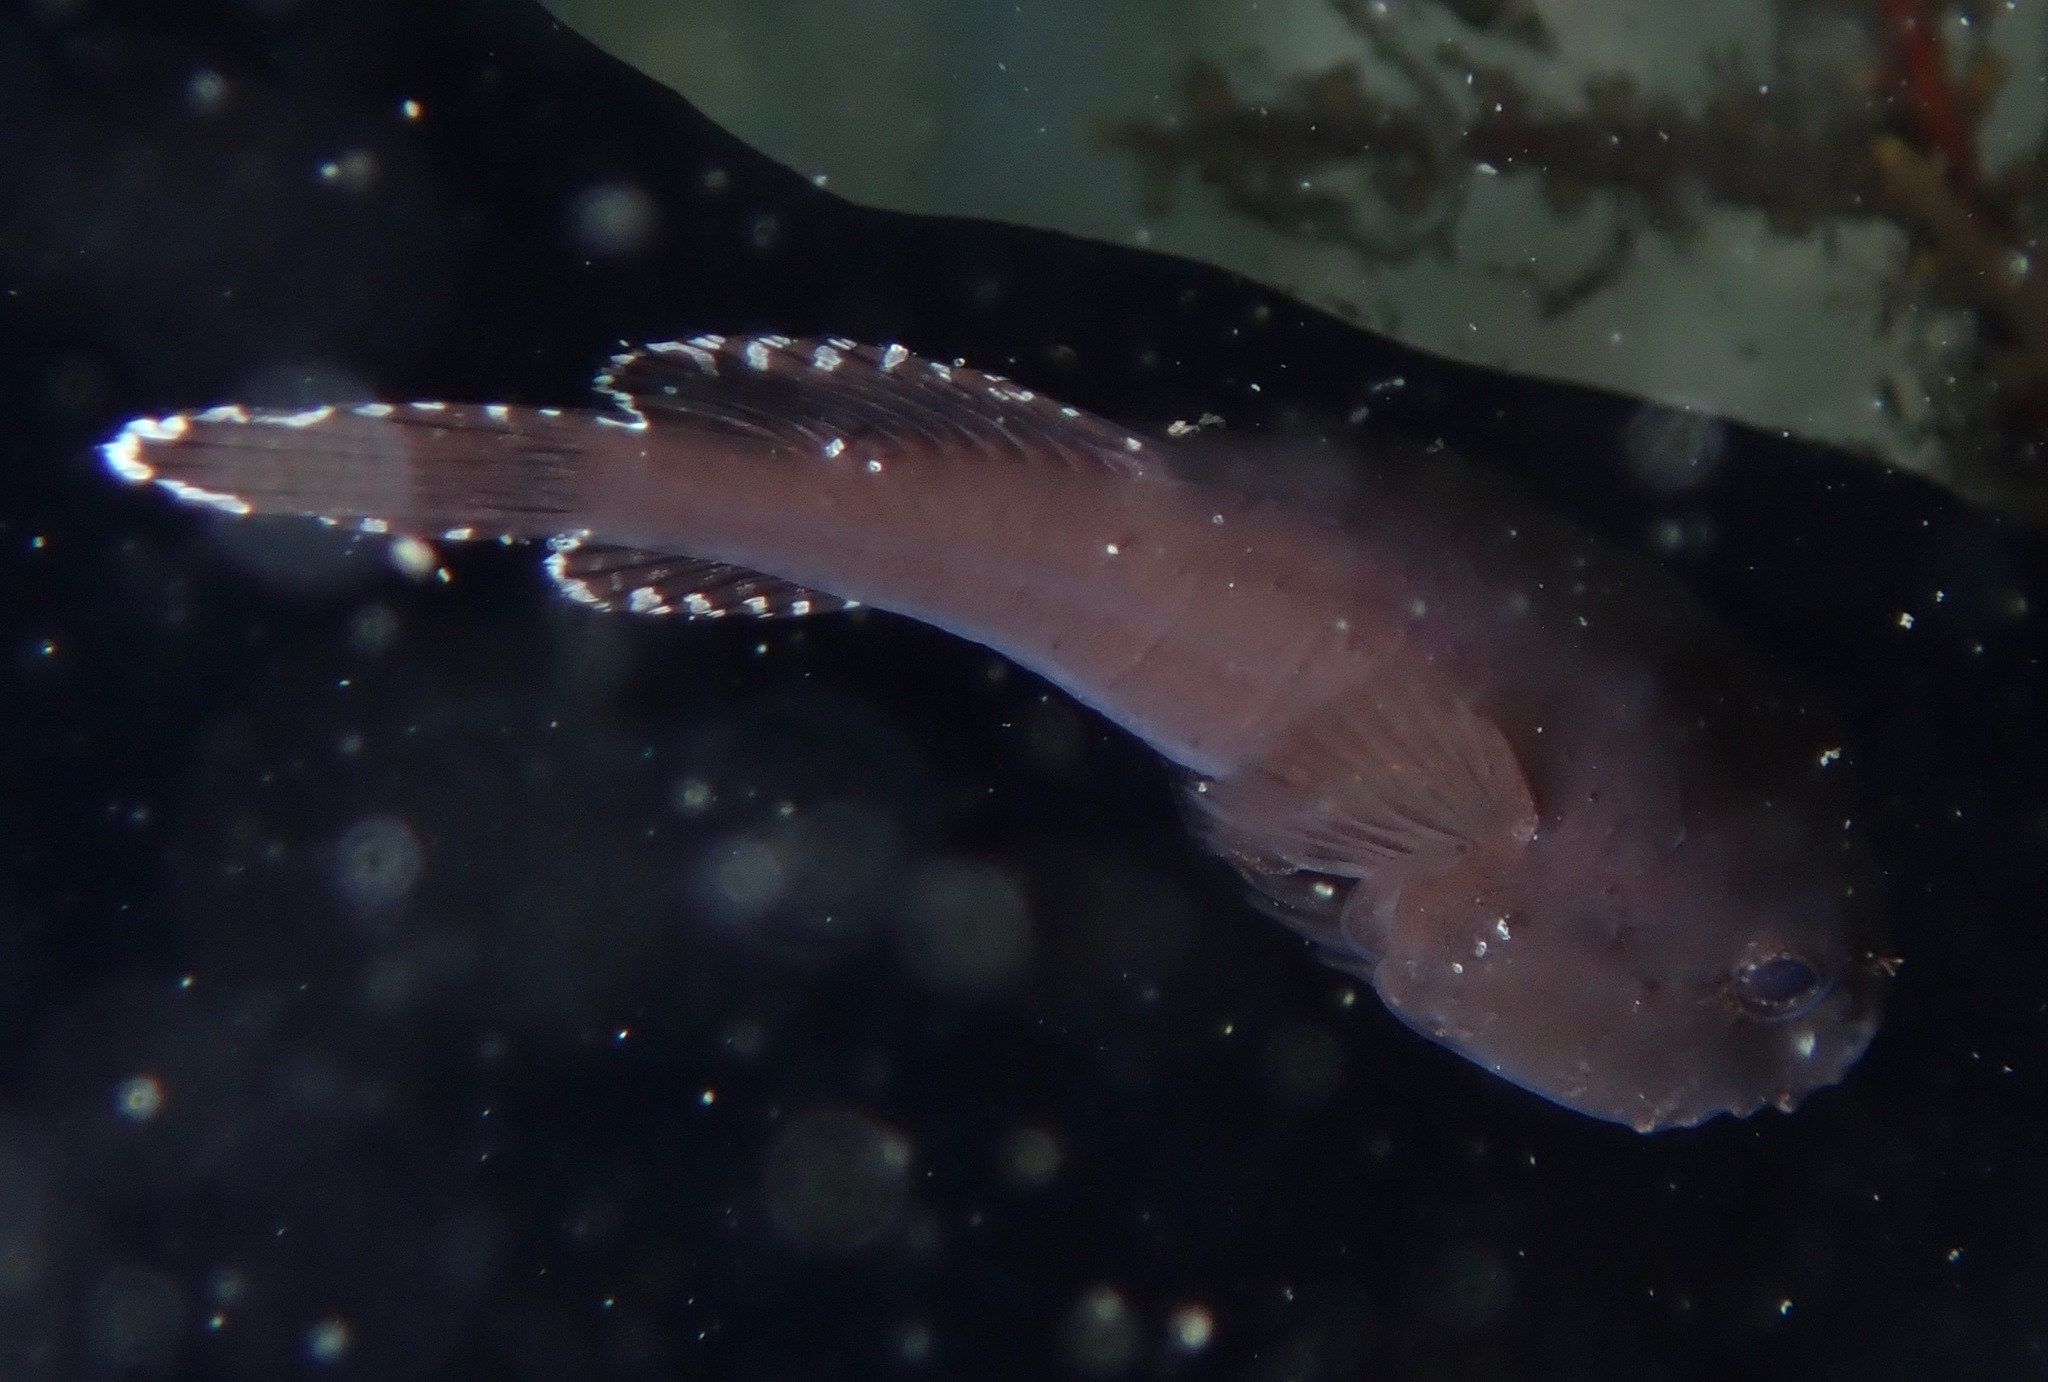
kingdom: Animalia
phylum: Chordata
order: Gobiesociformes
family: Gobiesocidae
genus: Gobiesox
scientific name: Gobiesox strumosus
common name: Skilletfish
